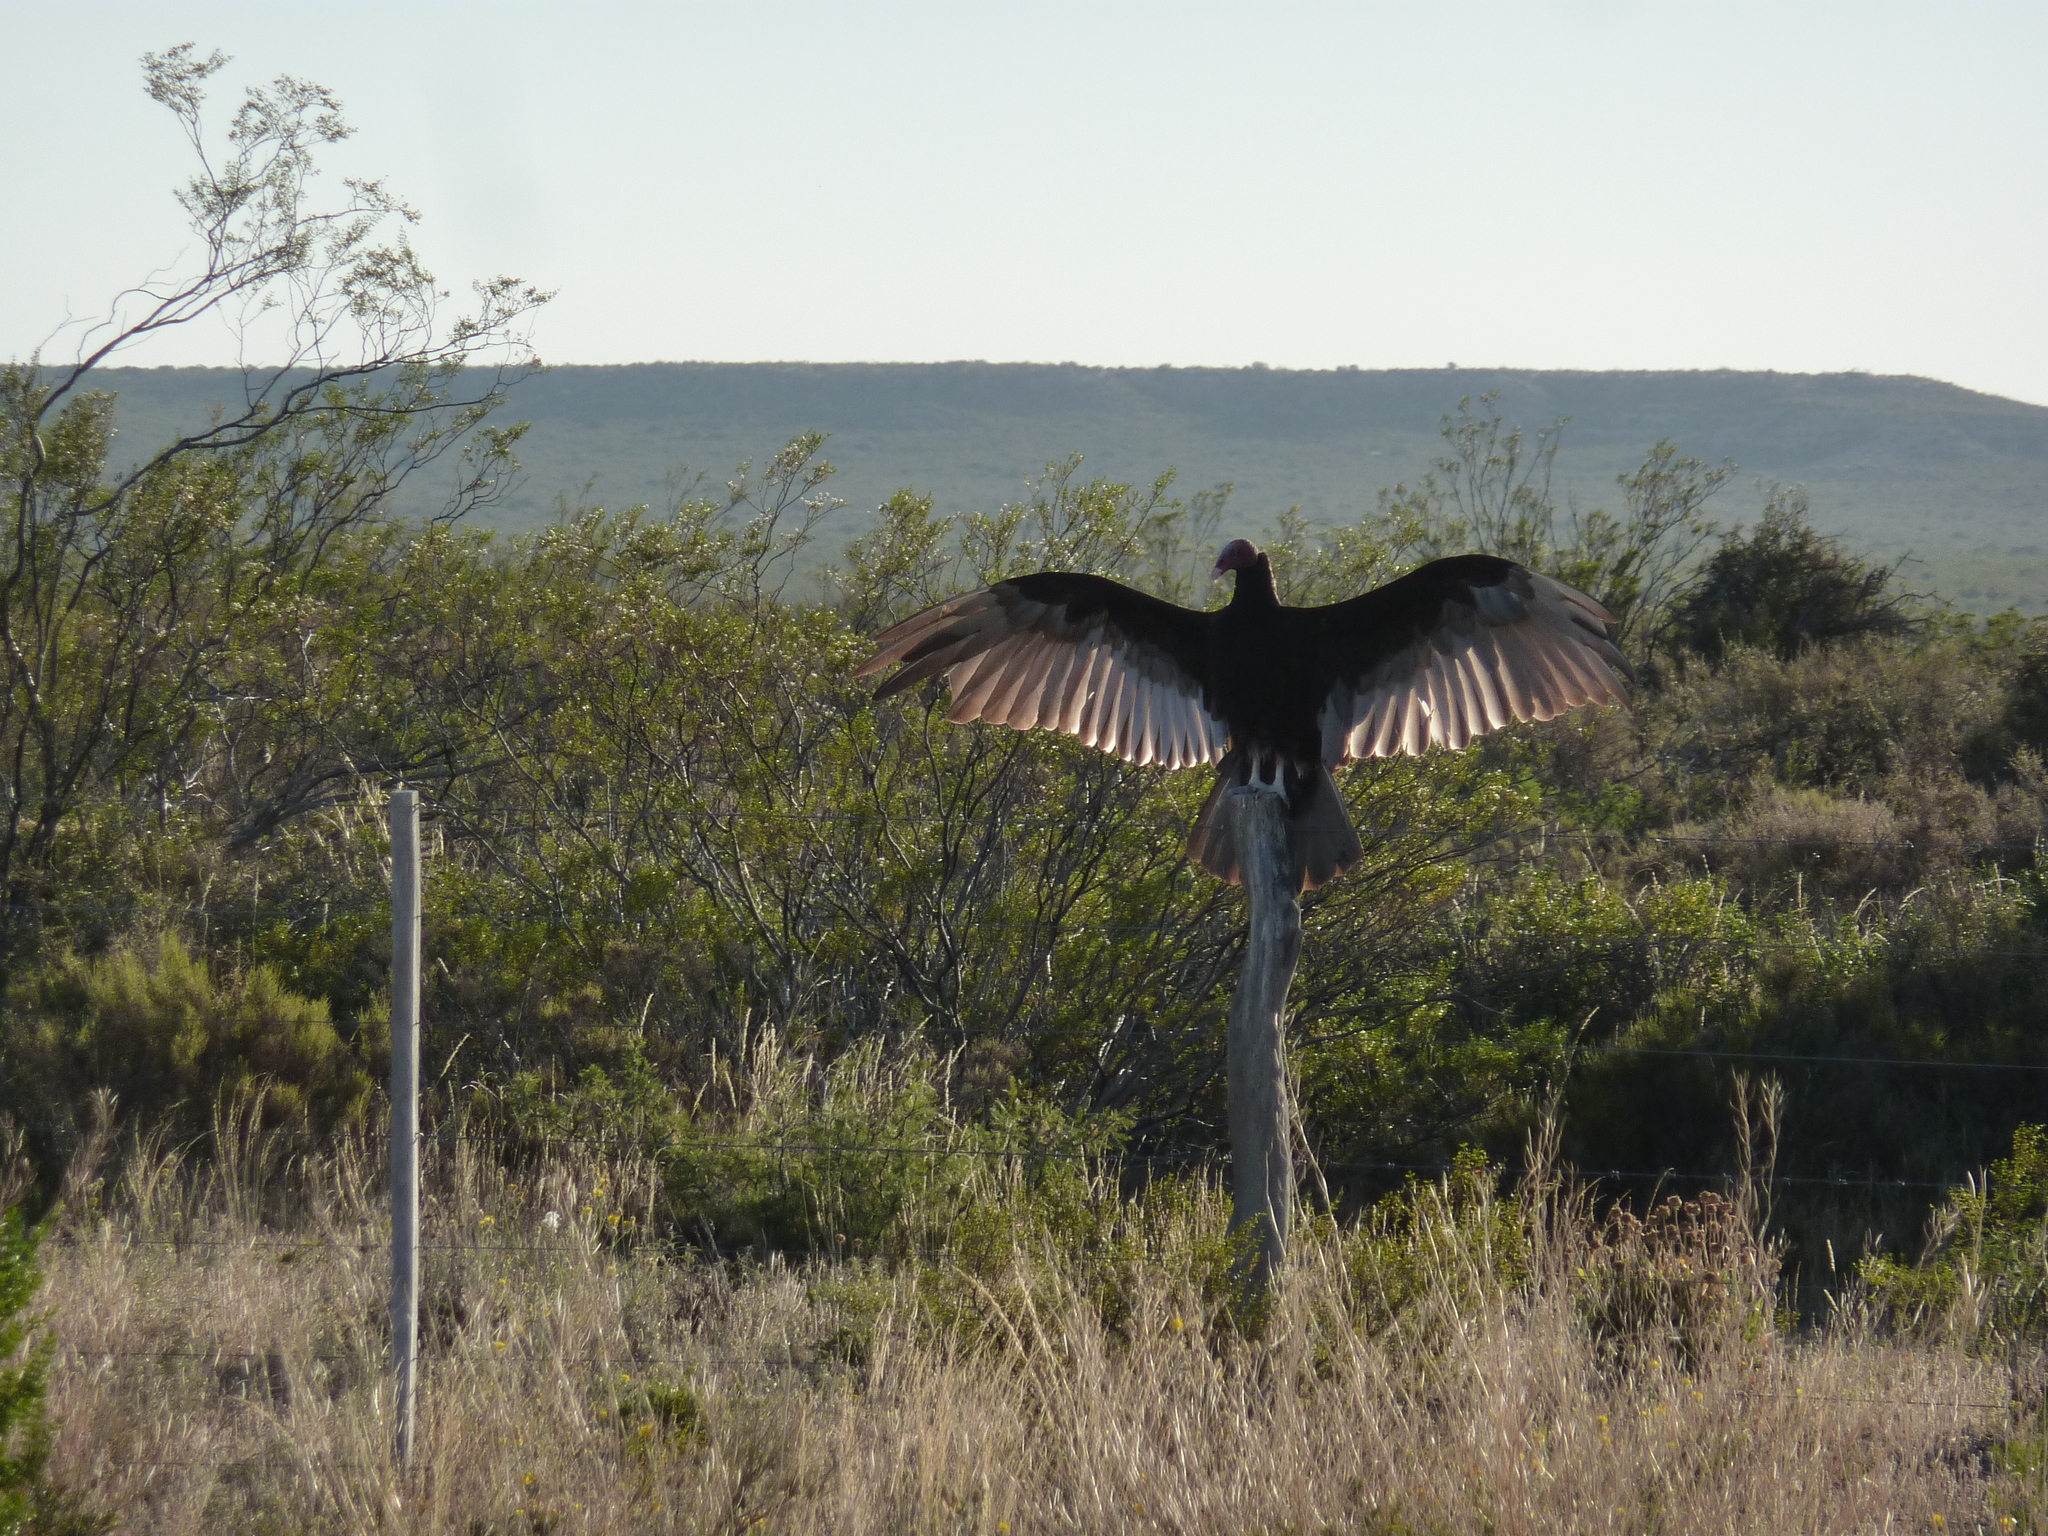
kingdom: Animalia
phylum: Chordata
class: Aves
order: Accipitriformes
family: Cathartidae
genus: Cathartes
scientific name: Cathartes aura
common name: Turkey vulture
